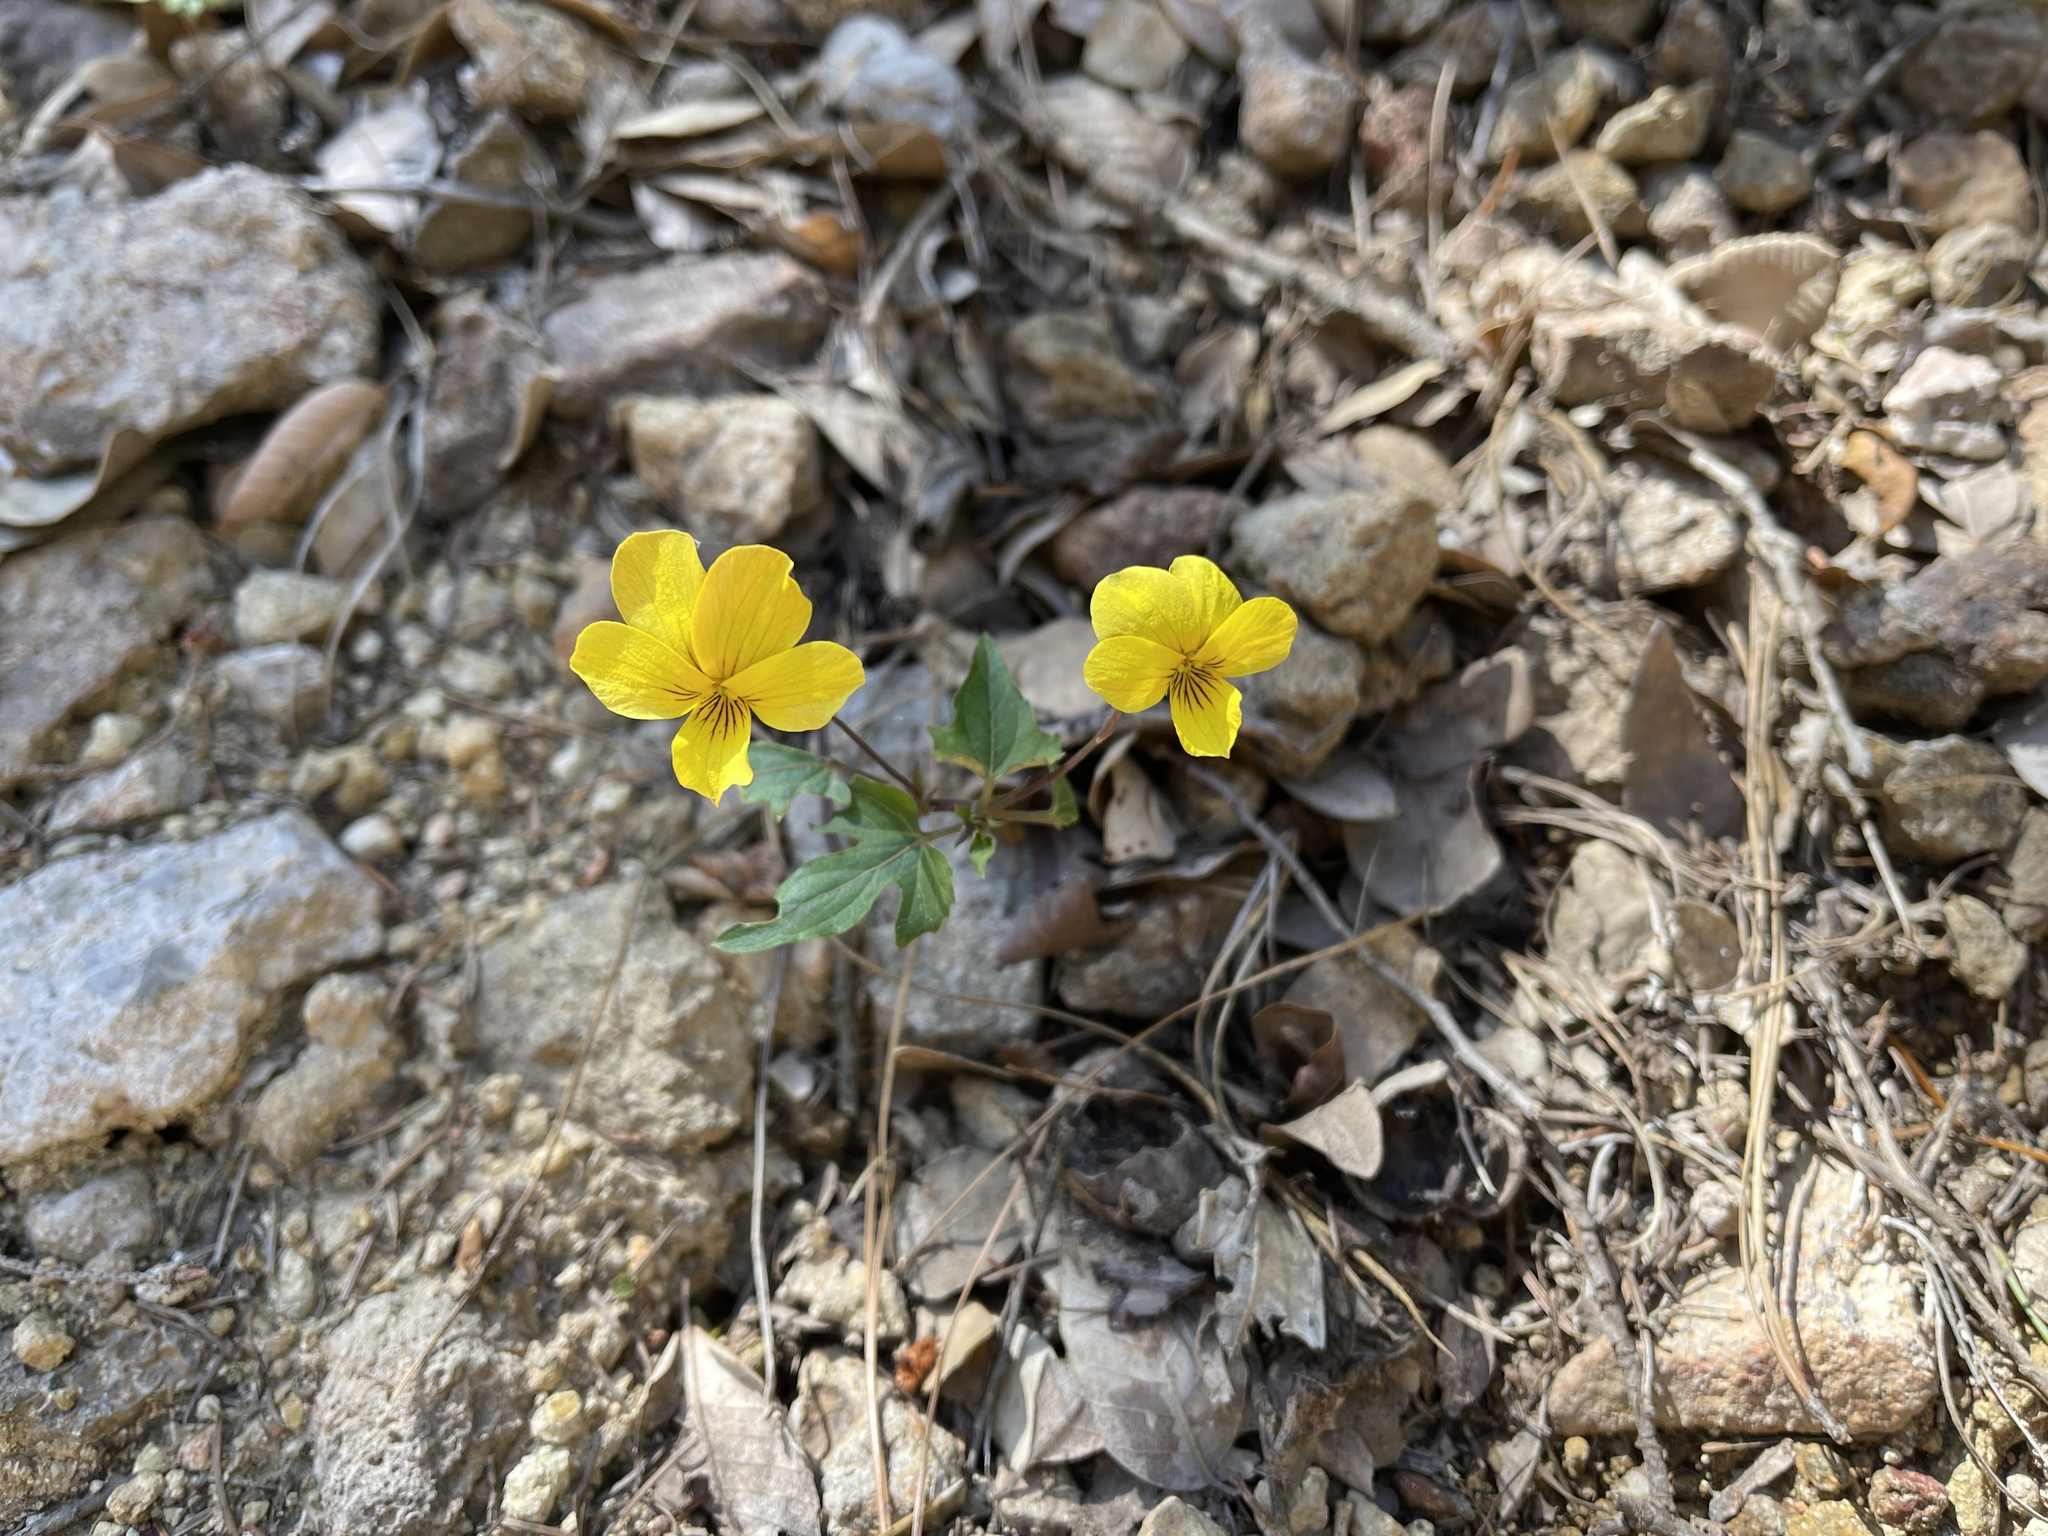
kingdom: Plantae
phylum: Tracheophyta
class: Magnoliopsida
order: Malpighiales
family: Violaceae
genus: Viola
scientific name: Viola lobata
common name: Pine violet
